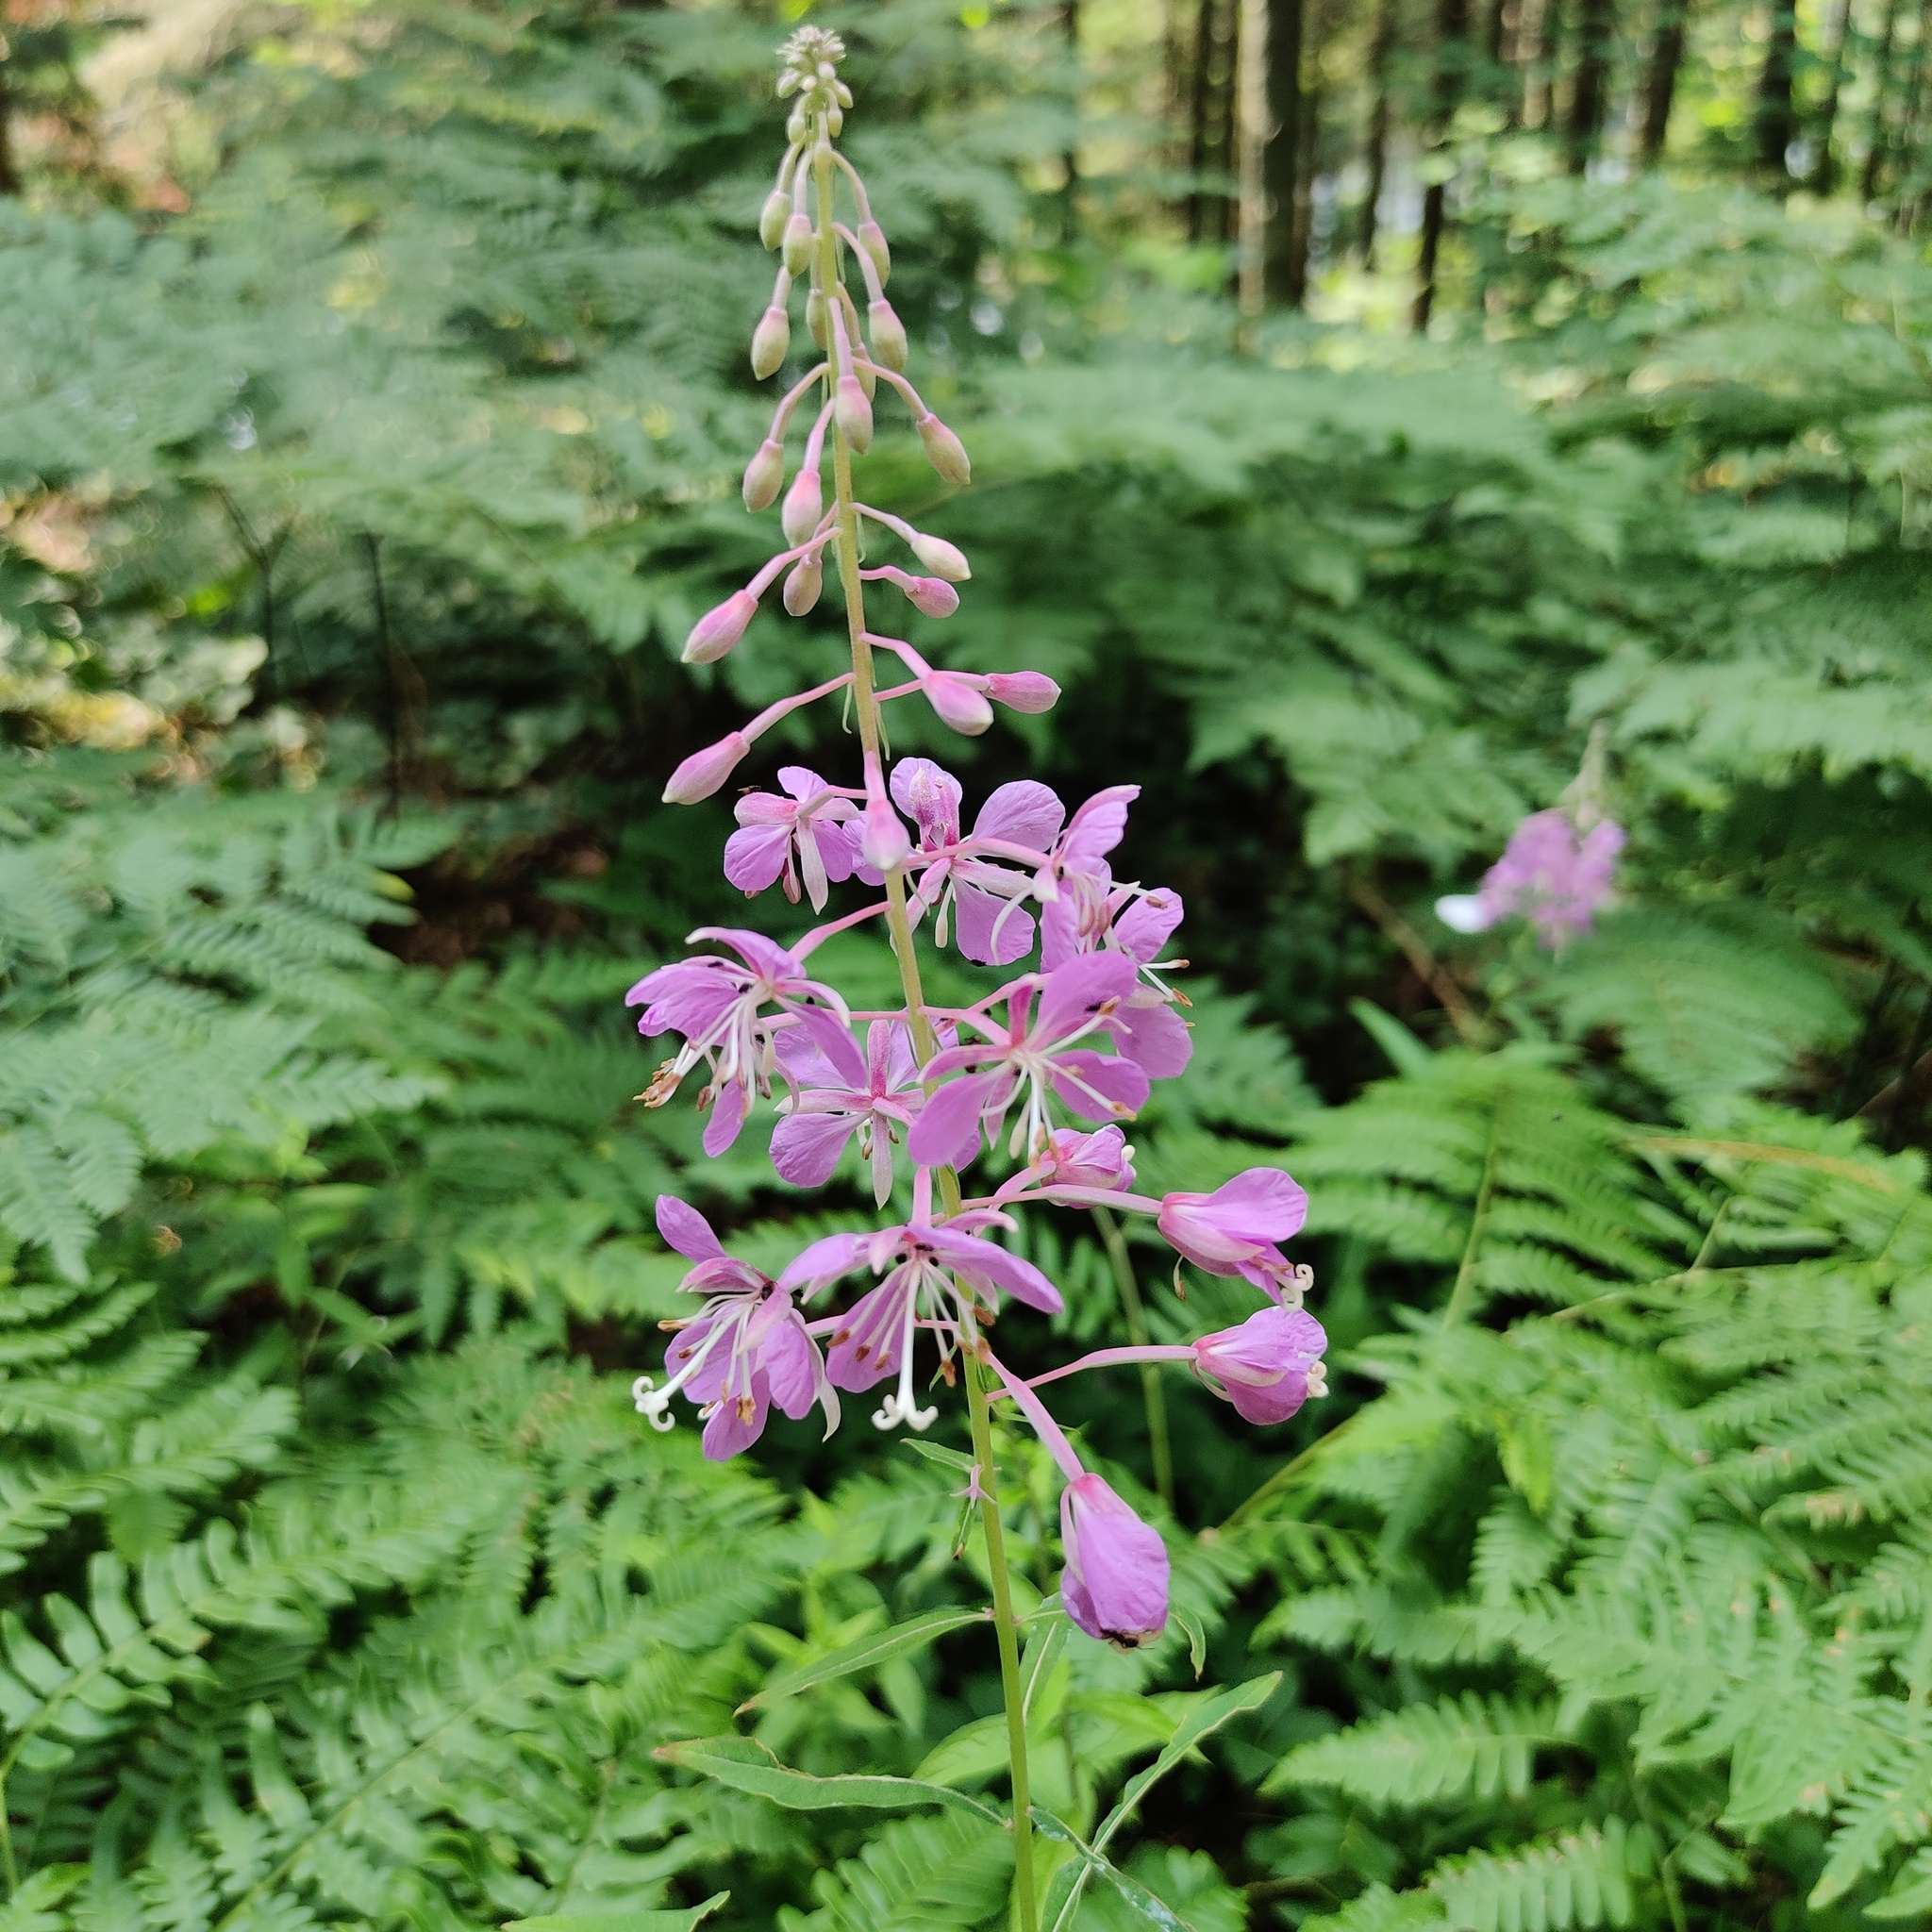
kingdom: Plantae
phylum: Tracheophyta
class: Magnoliopsida
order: Myrtales
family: Onagraceae
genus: Chamaenerion
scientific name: Chamaenerion angustifolium
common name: Fireweed
